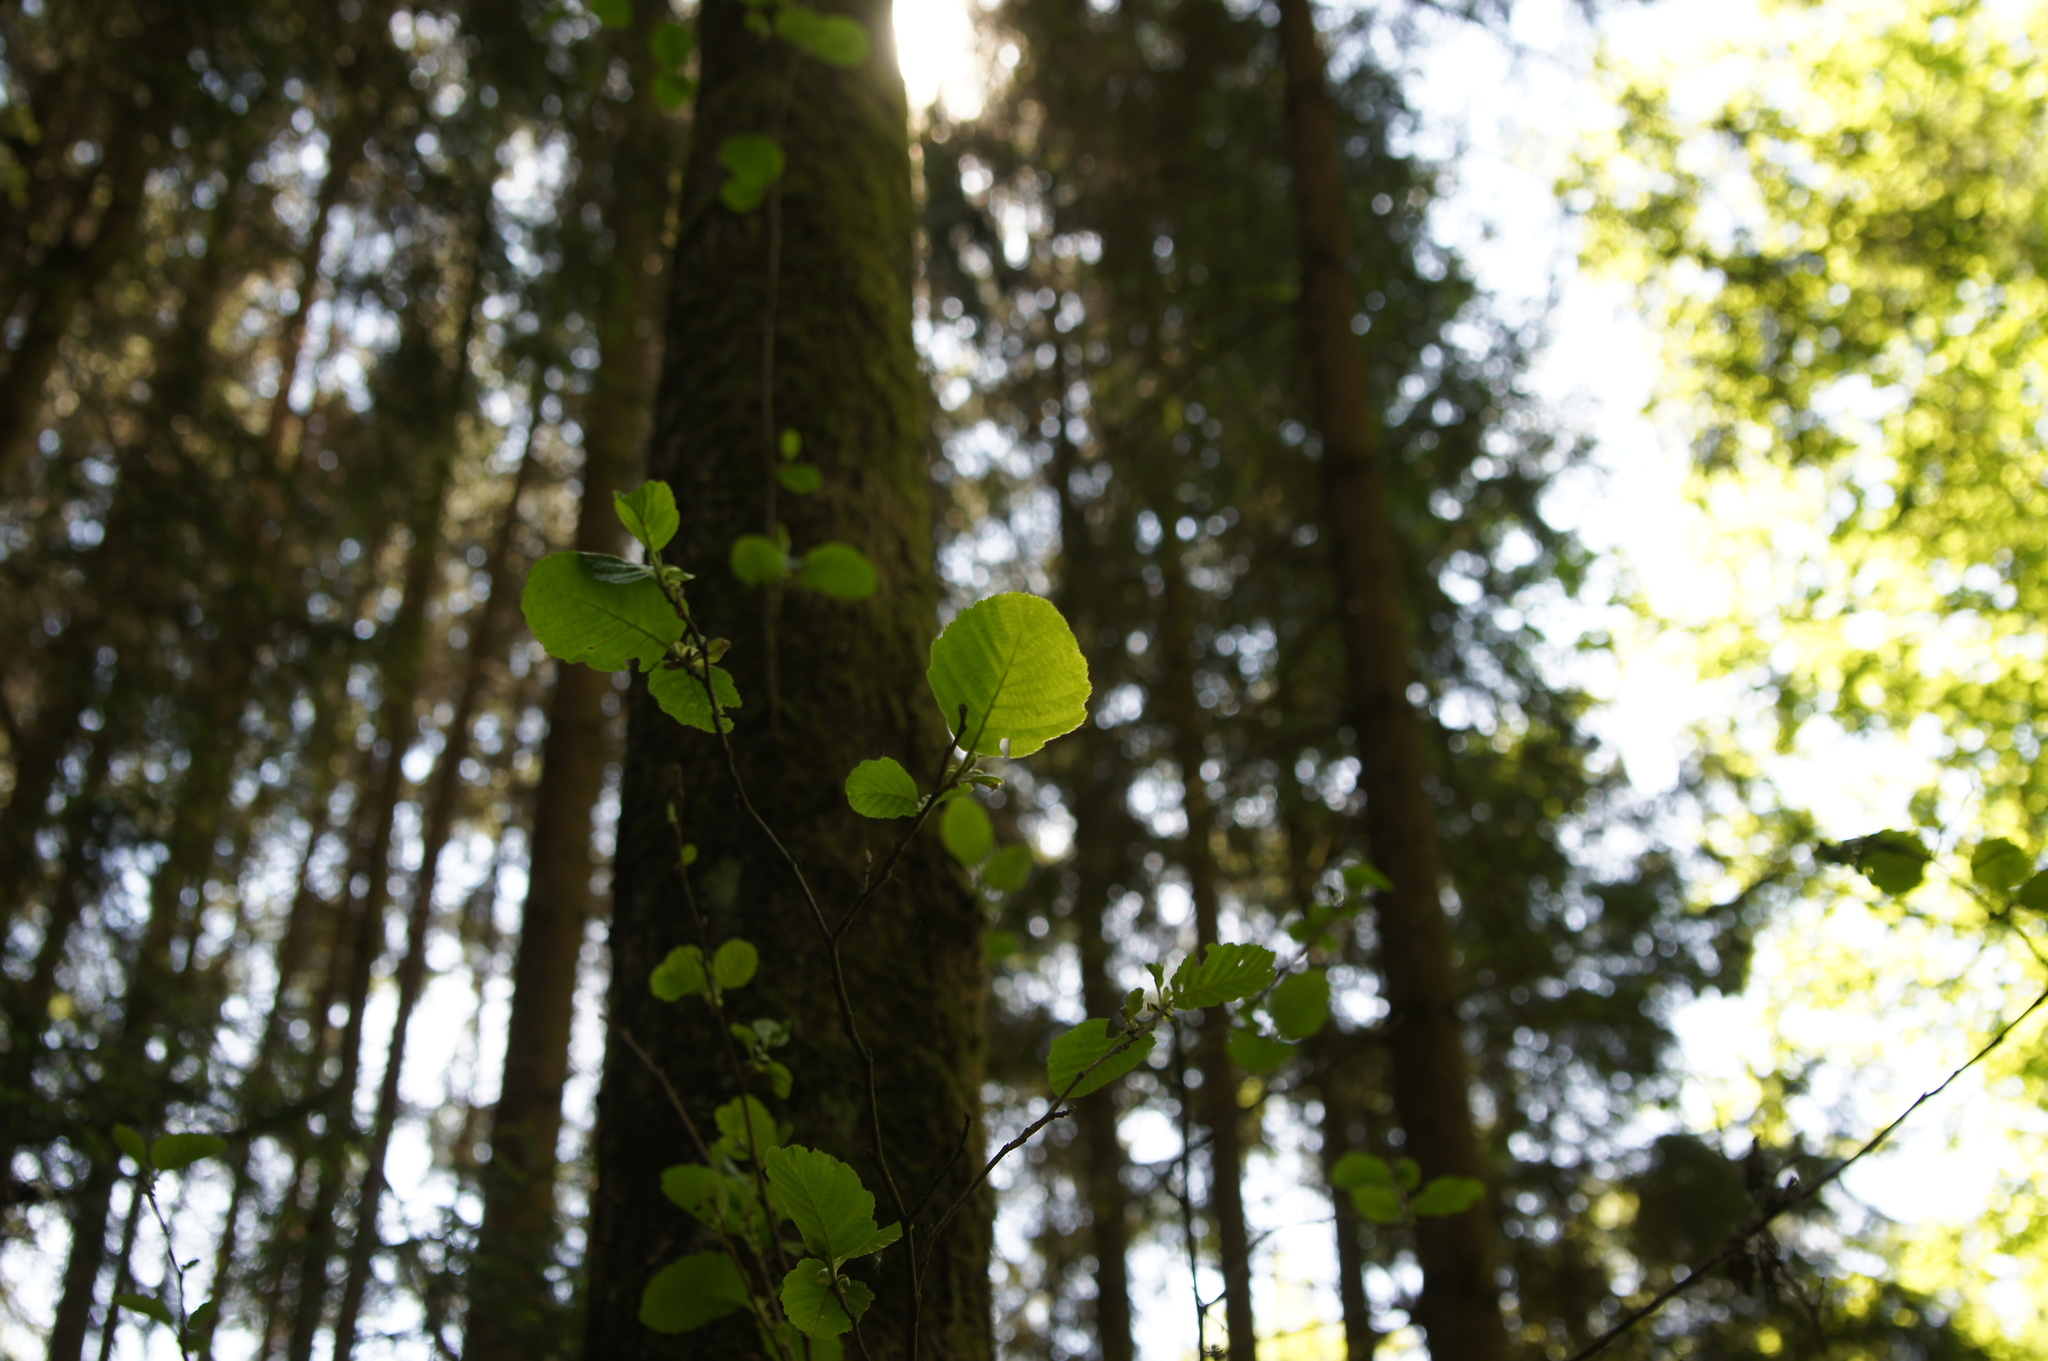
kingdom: Plantae
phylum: Tracheophyta
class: Magnoliopsida
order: Fagales
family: Betulaceae
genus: Alnus
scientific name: Alnus glutinosa
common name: Black alder
